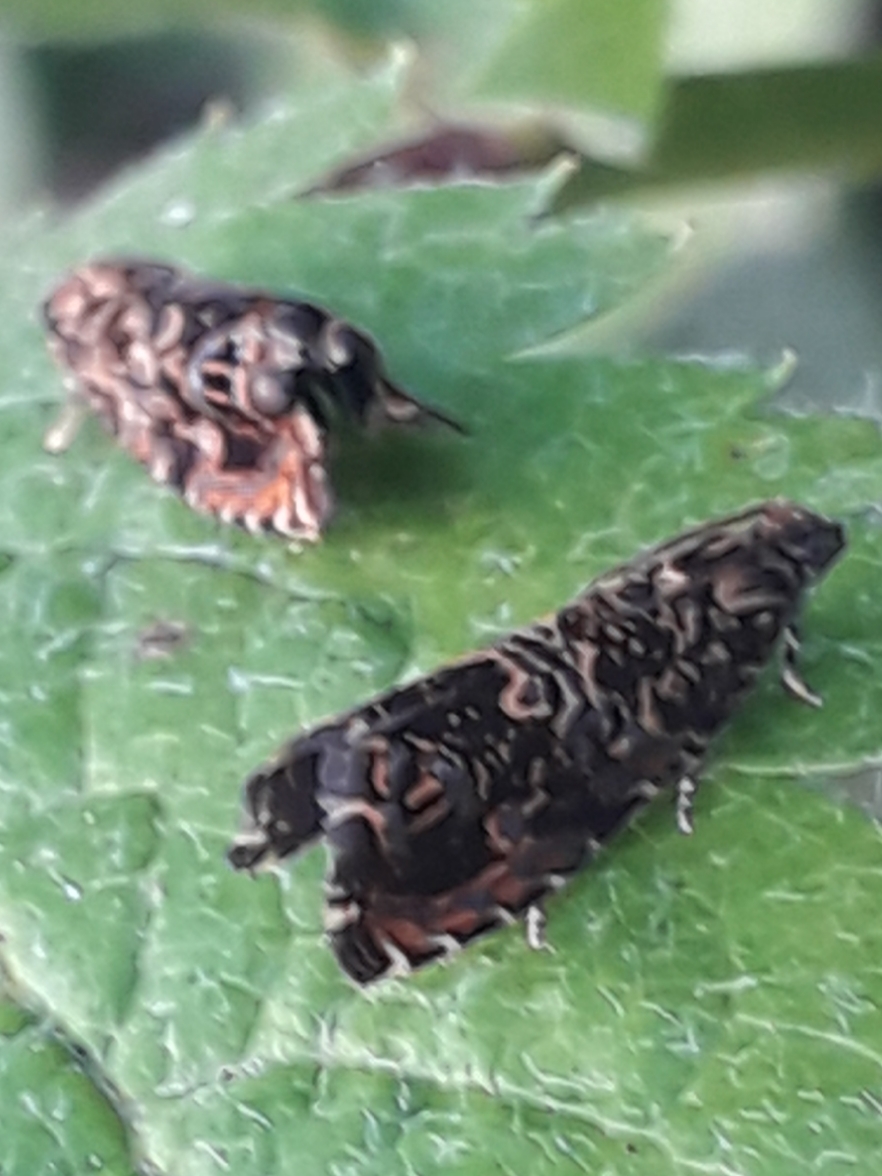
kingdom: Animalia
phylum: Arthropoda
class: Insecta
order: Lepidoptera
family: Tortricidae
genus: Enarmonia
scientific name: Enarmonia formosana
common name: Cherry bark tortrix
